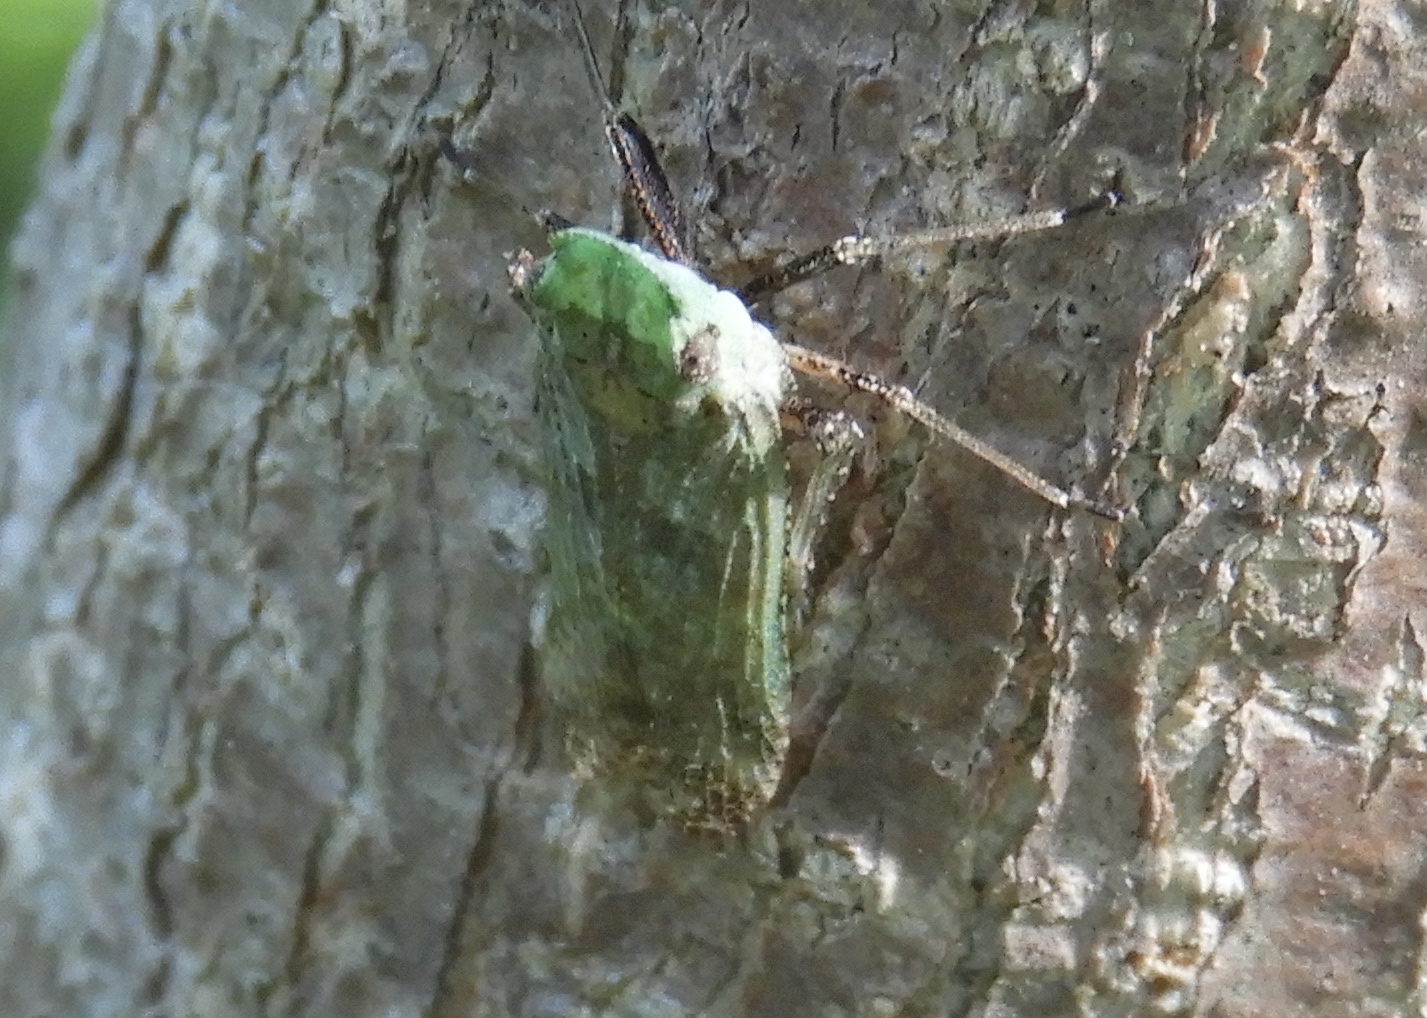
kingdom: Animalia
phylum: Arthropoda
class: Insecta
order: Hemiptera
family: Fulgoridae
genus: Cyrpoptus
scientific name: Cyrpoptus
